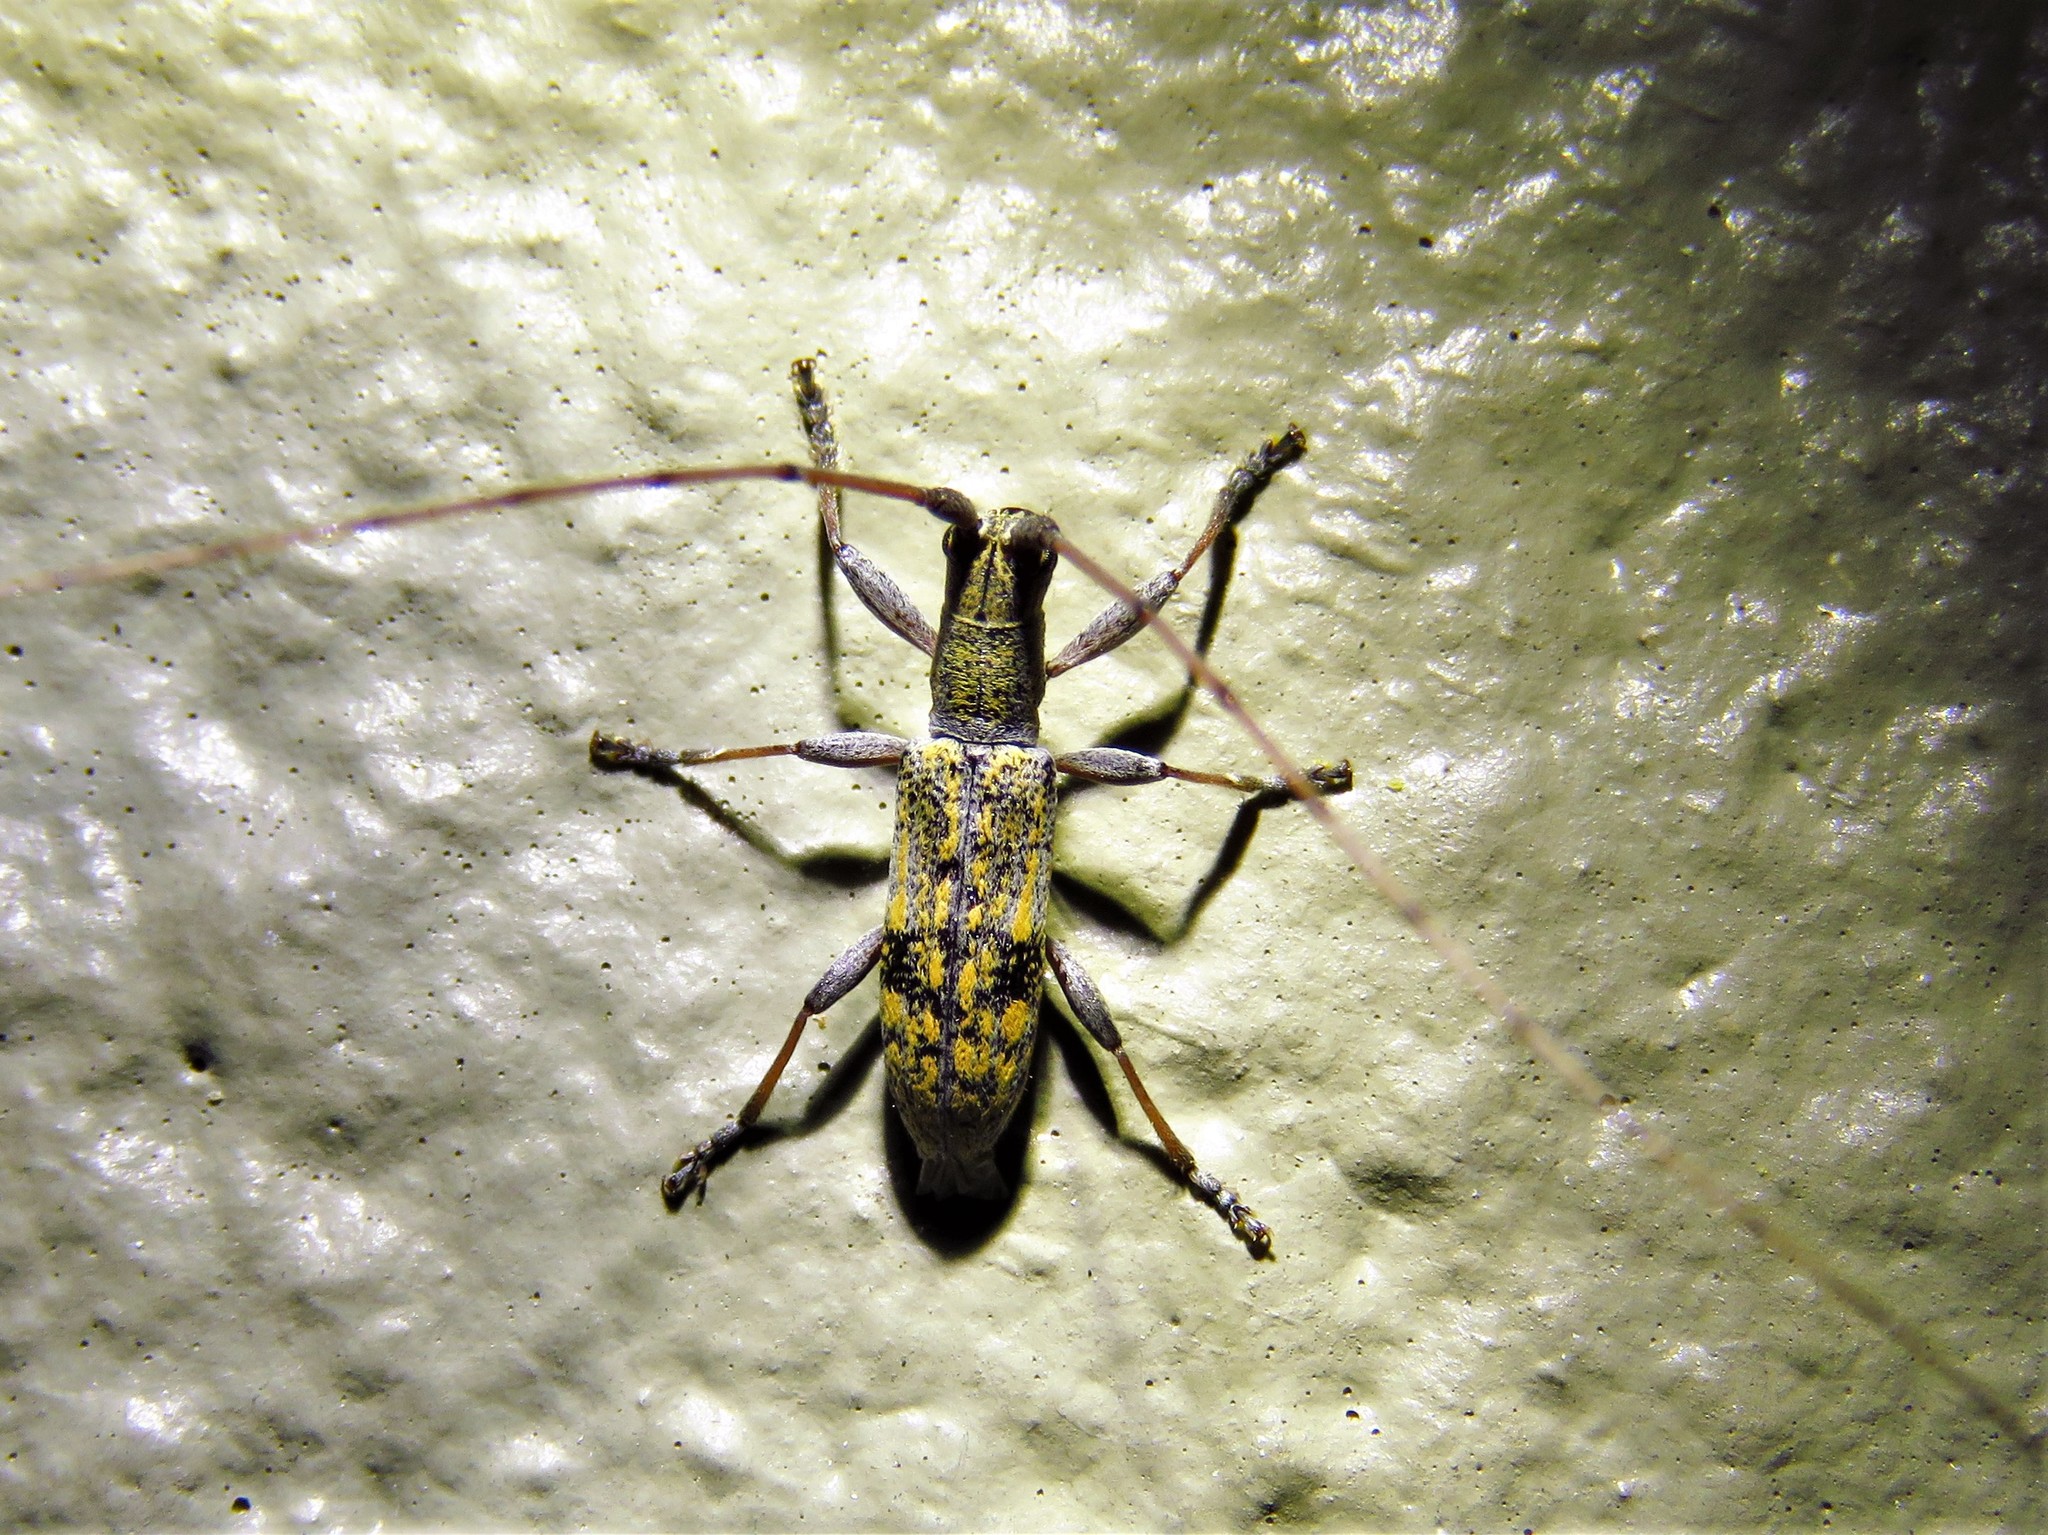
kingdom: Animalia
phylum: Arthropoda
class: Insecta
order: Coleoptera
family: Cerambycidae
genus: Dorcaschema
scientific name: Dorcaschema alternatum
